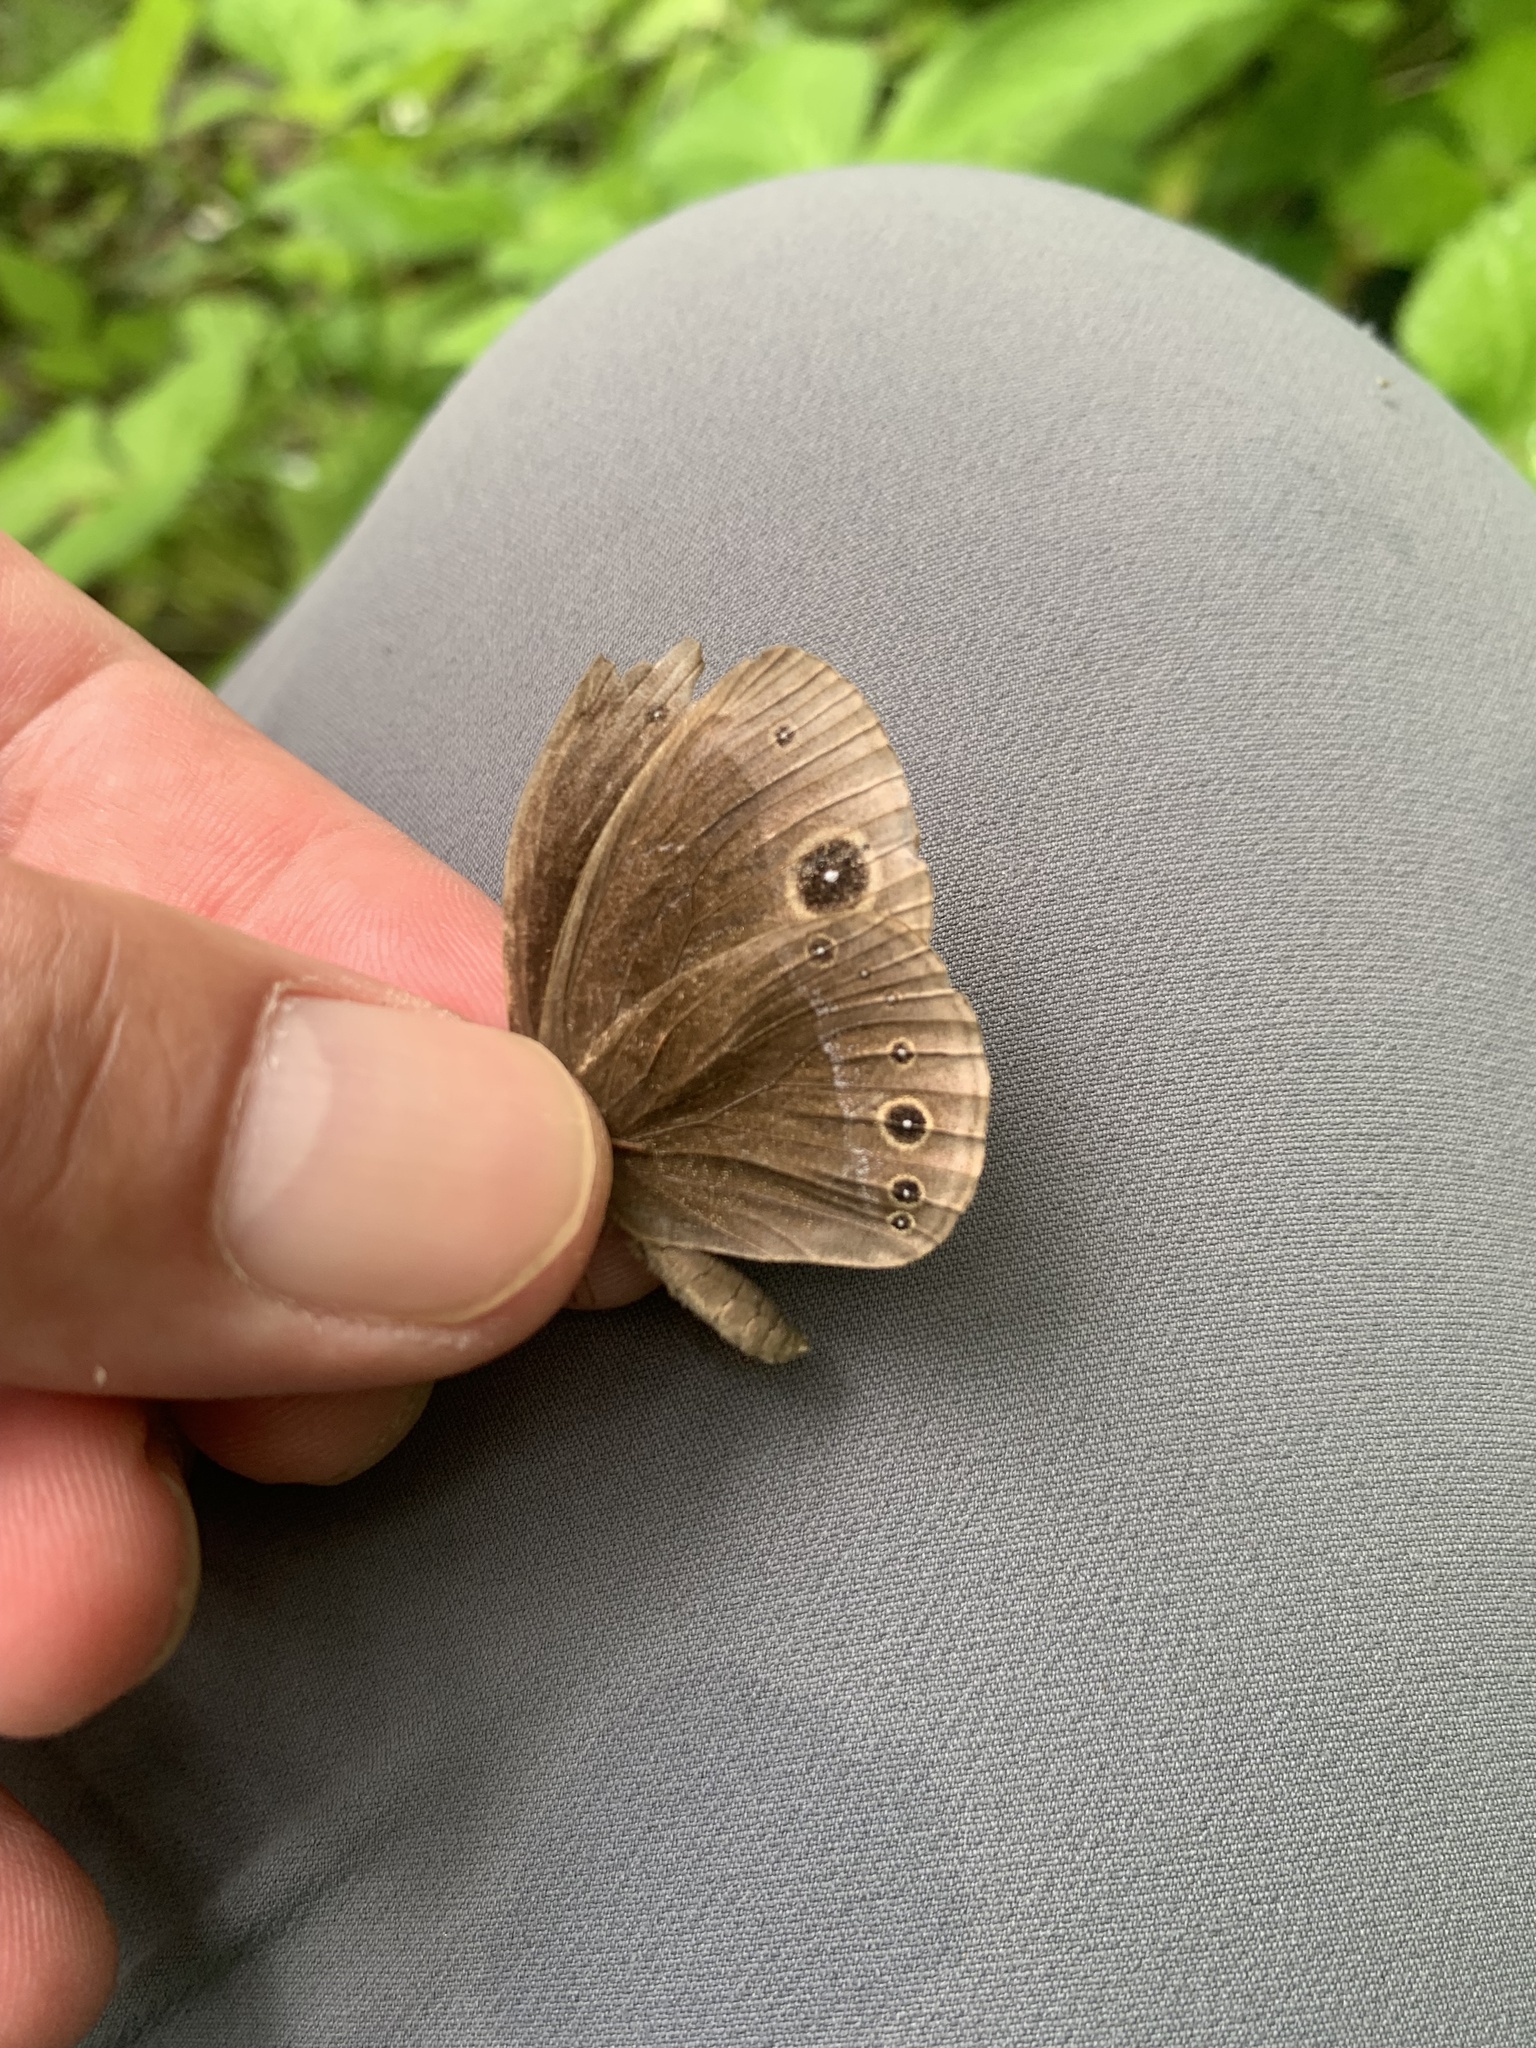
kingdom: Animalia
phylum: Arthropoda
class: Insecta
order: Lepidoptera
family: Nymphalidae
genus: Mycalesis
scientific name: Mycalesis francisca
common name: Lilacine bushbrown
